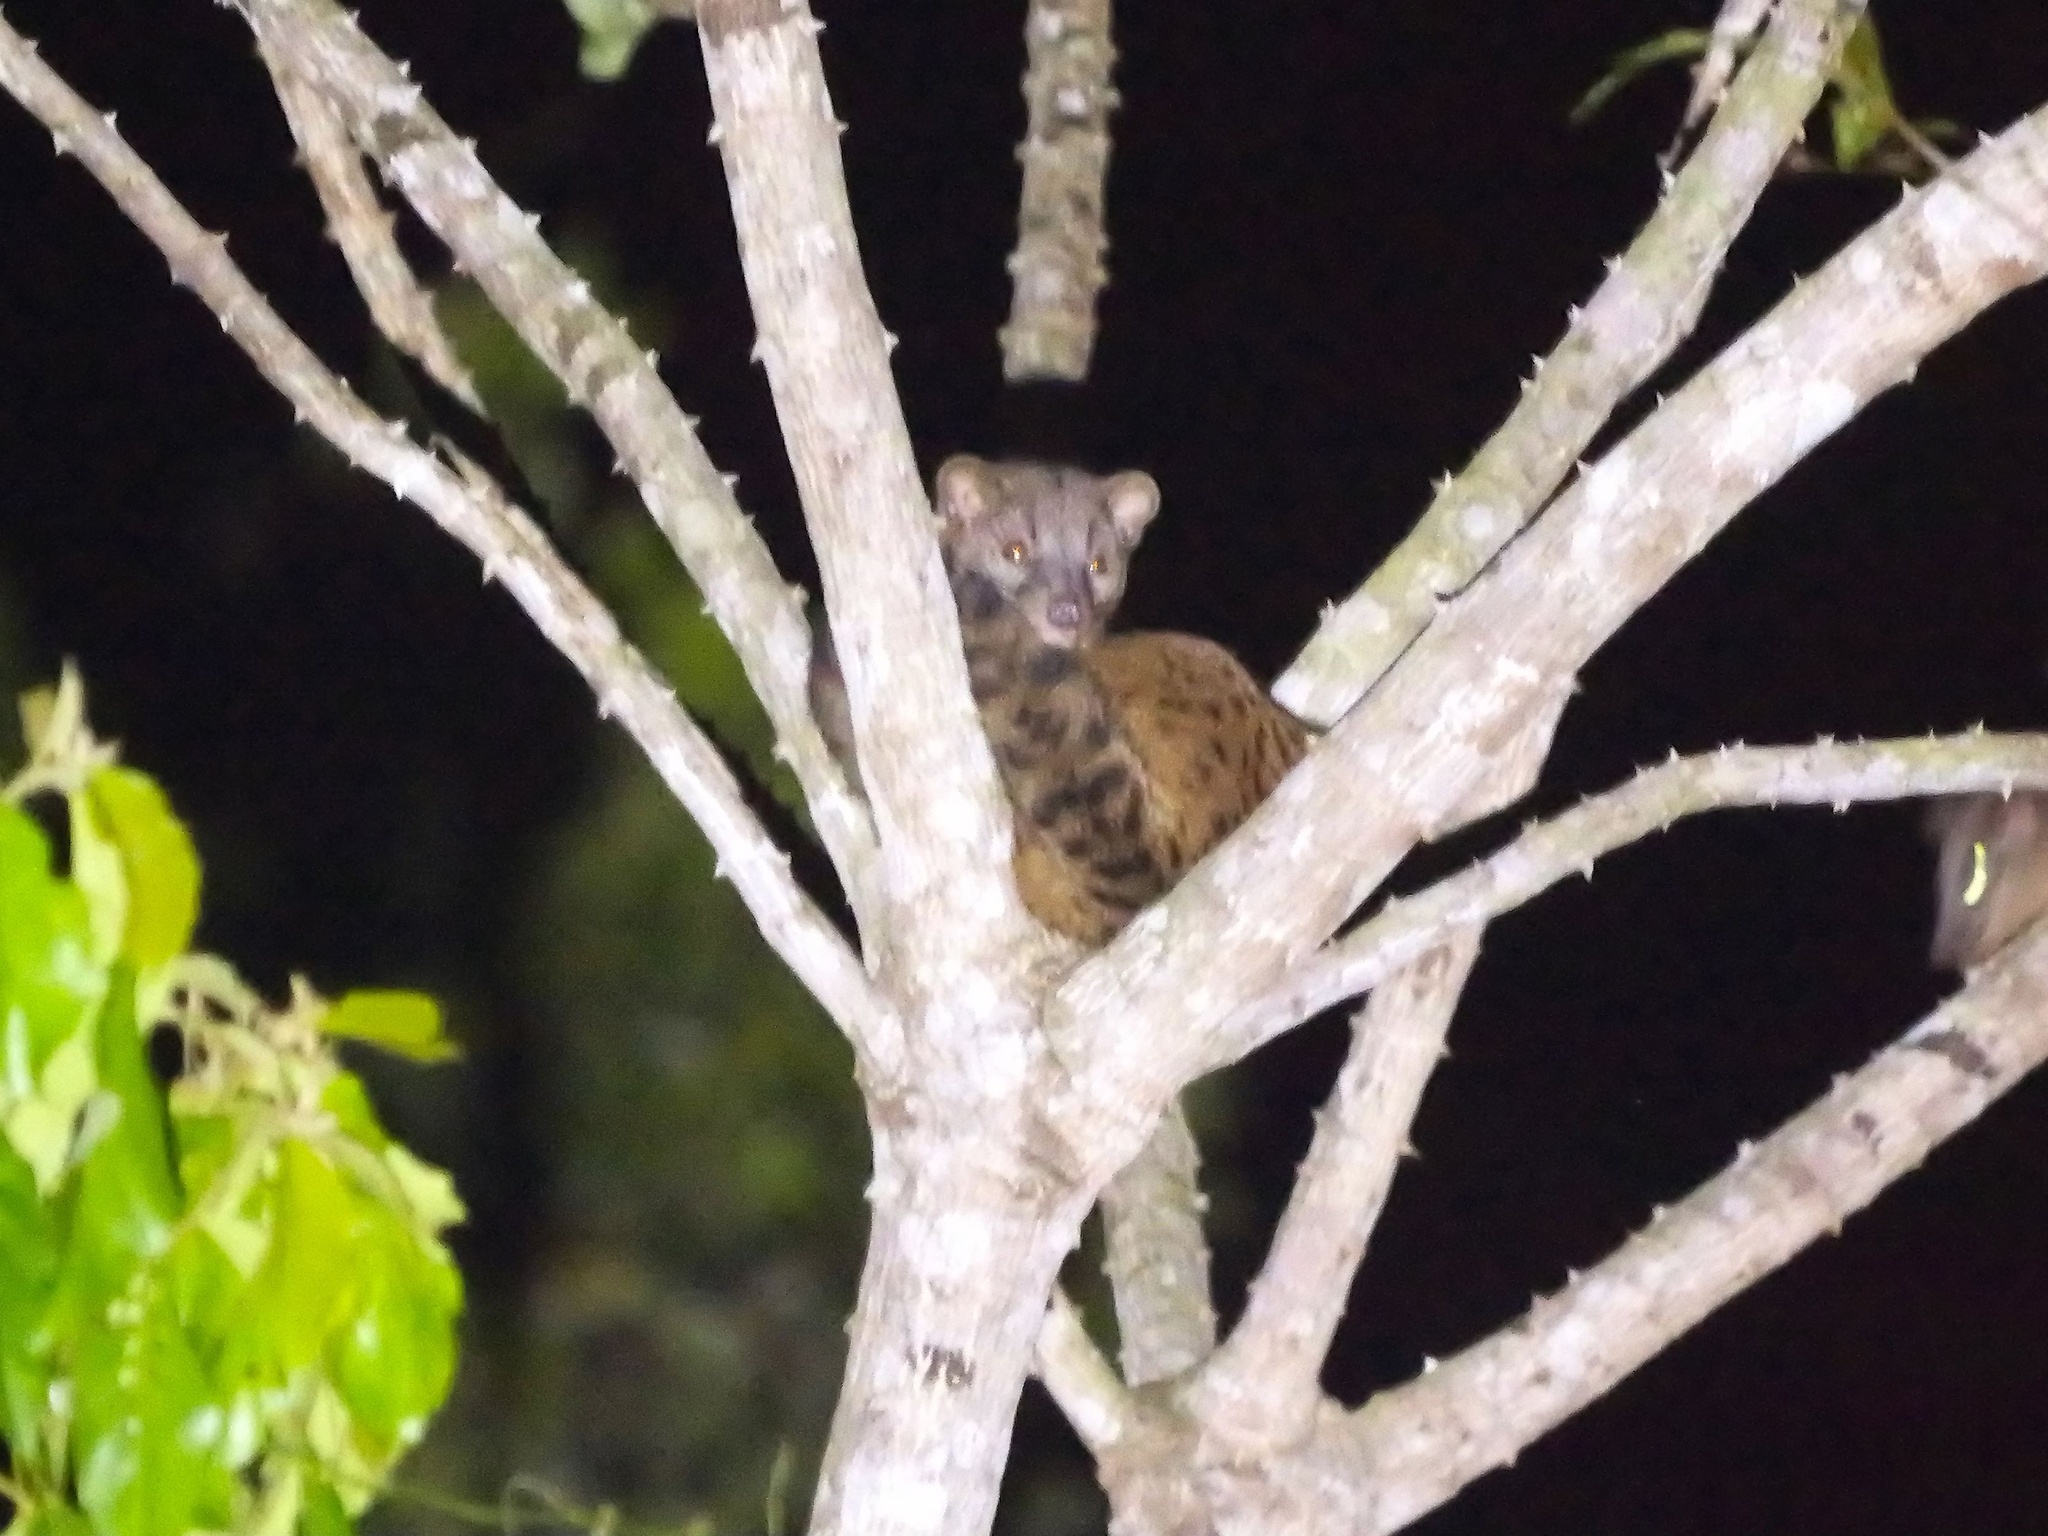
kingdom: Animalia
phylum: Chordata
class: Mammalia
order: Carnivora
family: Nandiniidae
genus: Nandinia
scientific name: Nandinia binotata
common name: African palm civet
